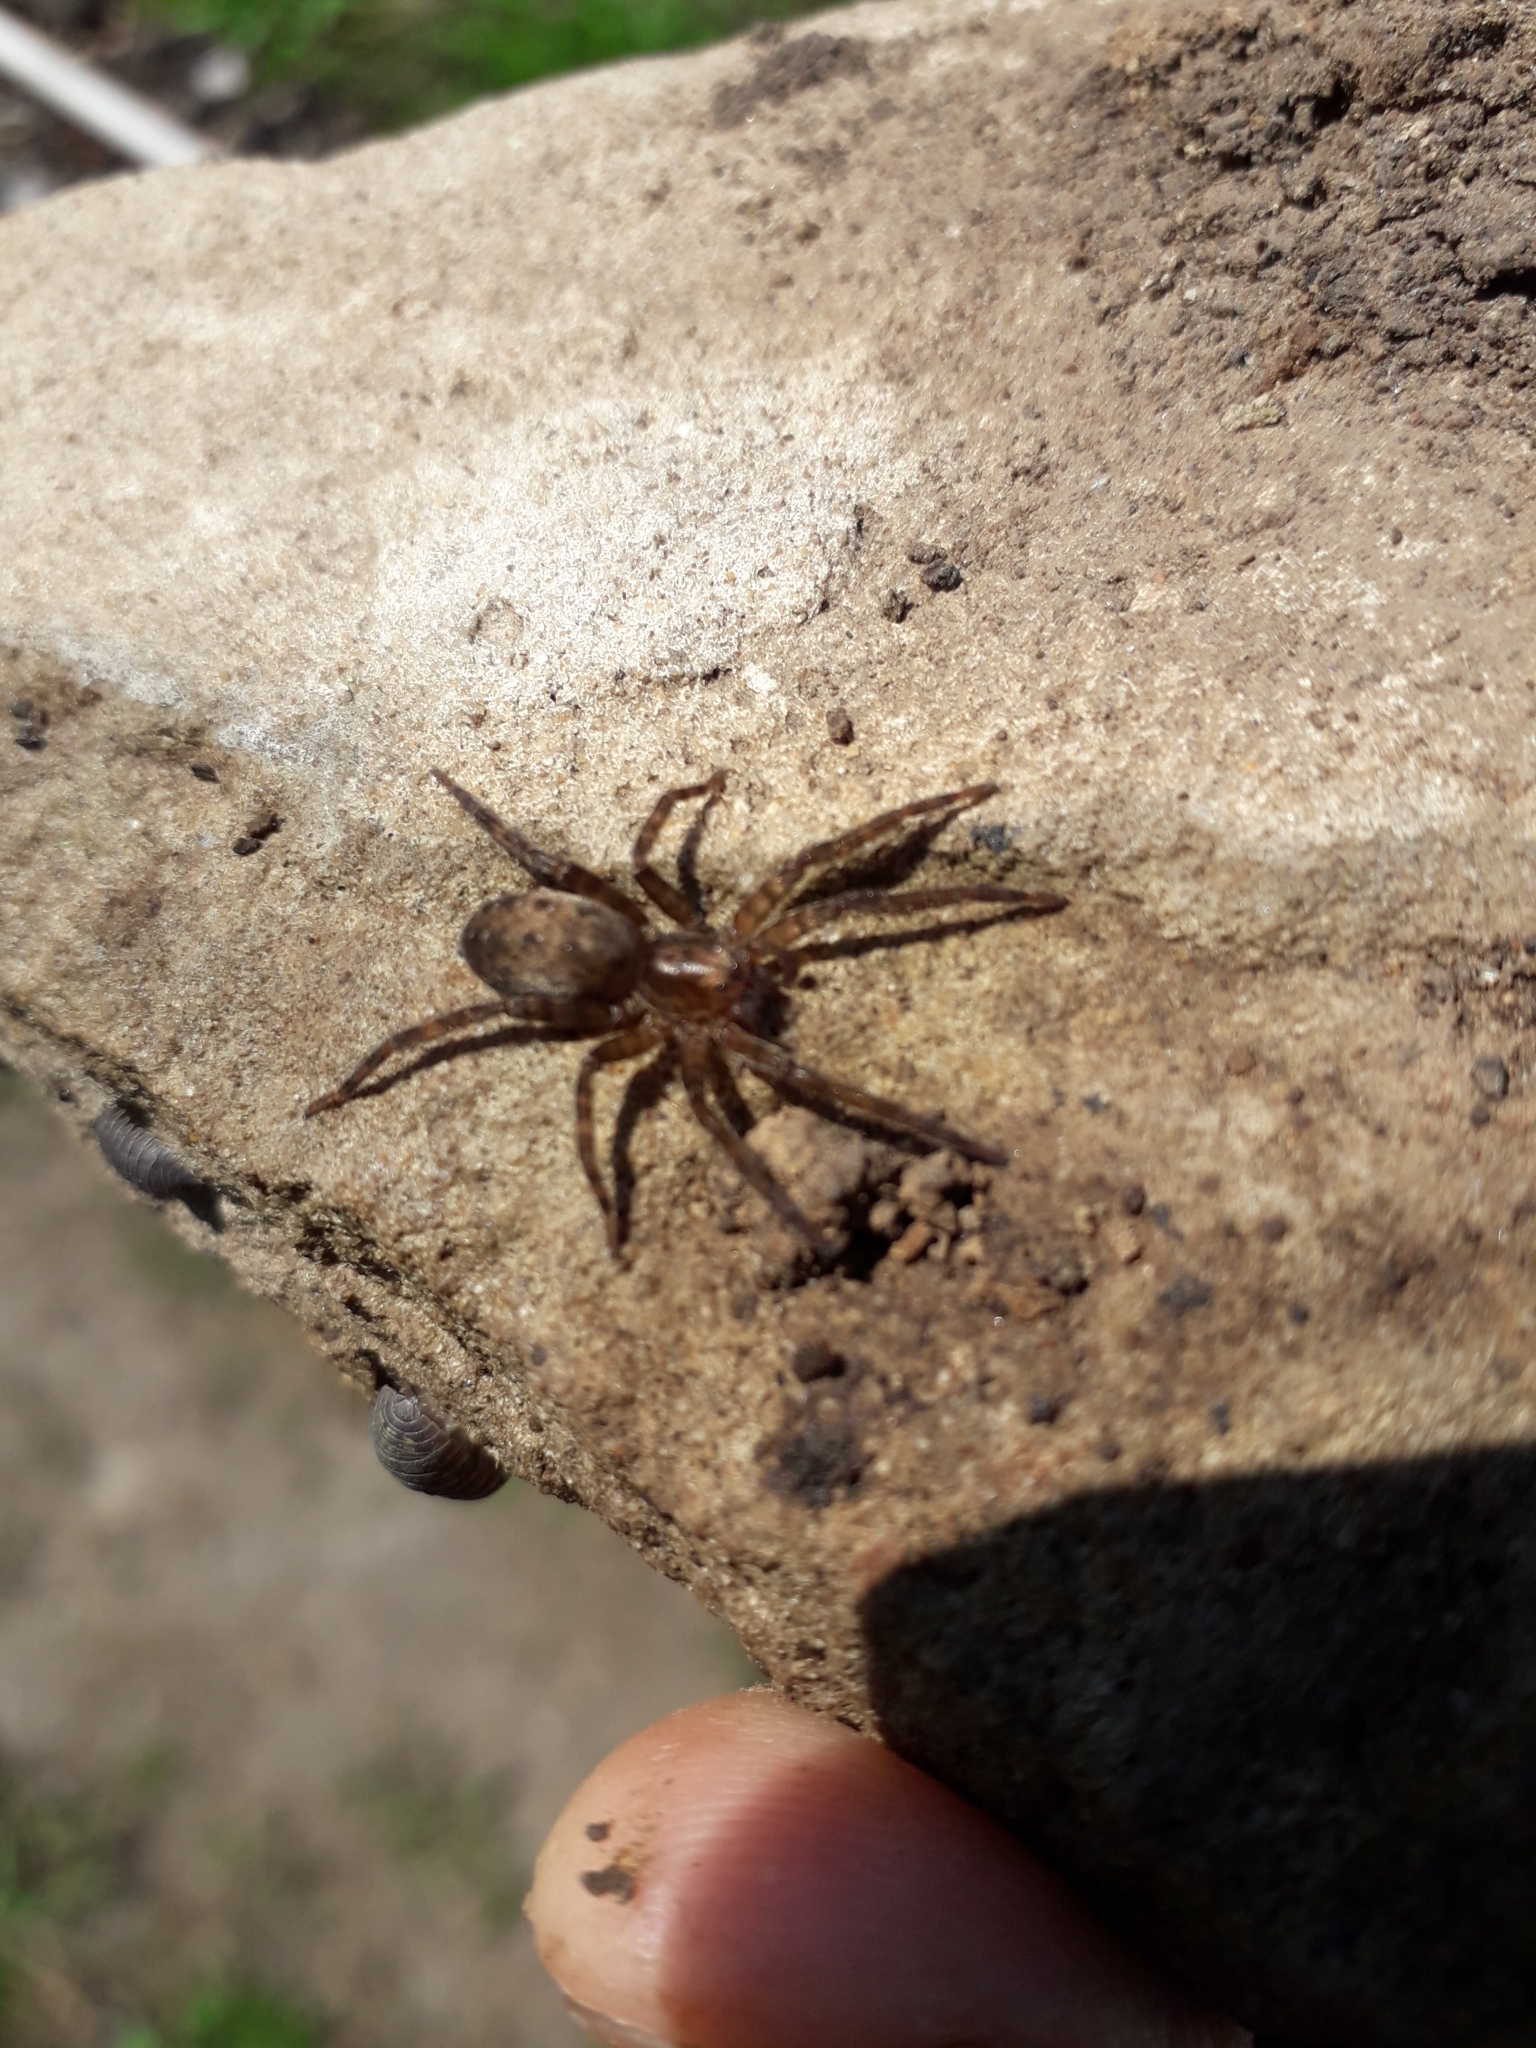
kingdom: Animalia
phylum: Arthropoda
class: Arachnida
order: Araneae
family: Ctenidae
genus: Asthenoctenus
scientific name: Asthenoctenus borellii
